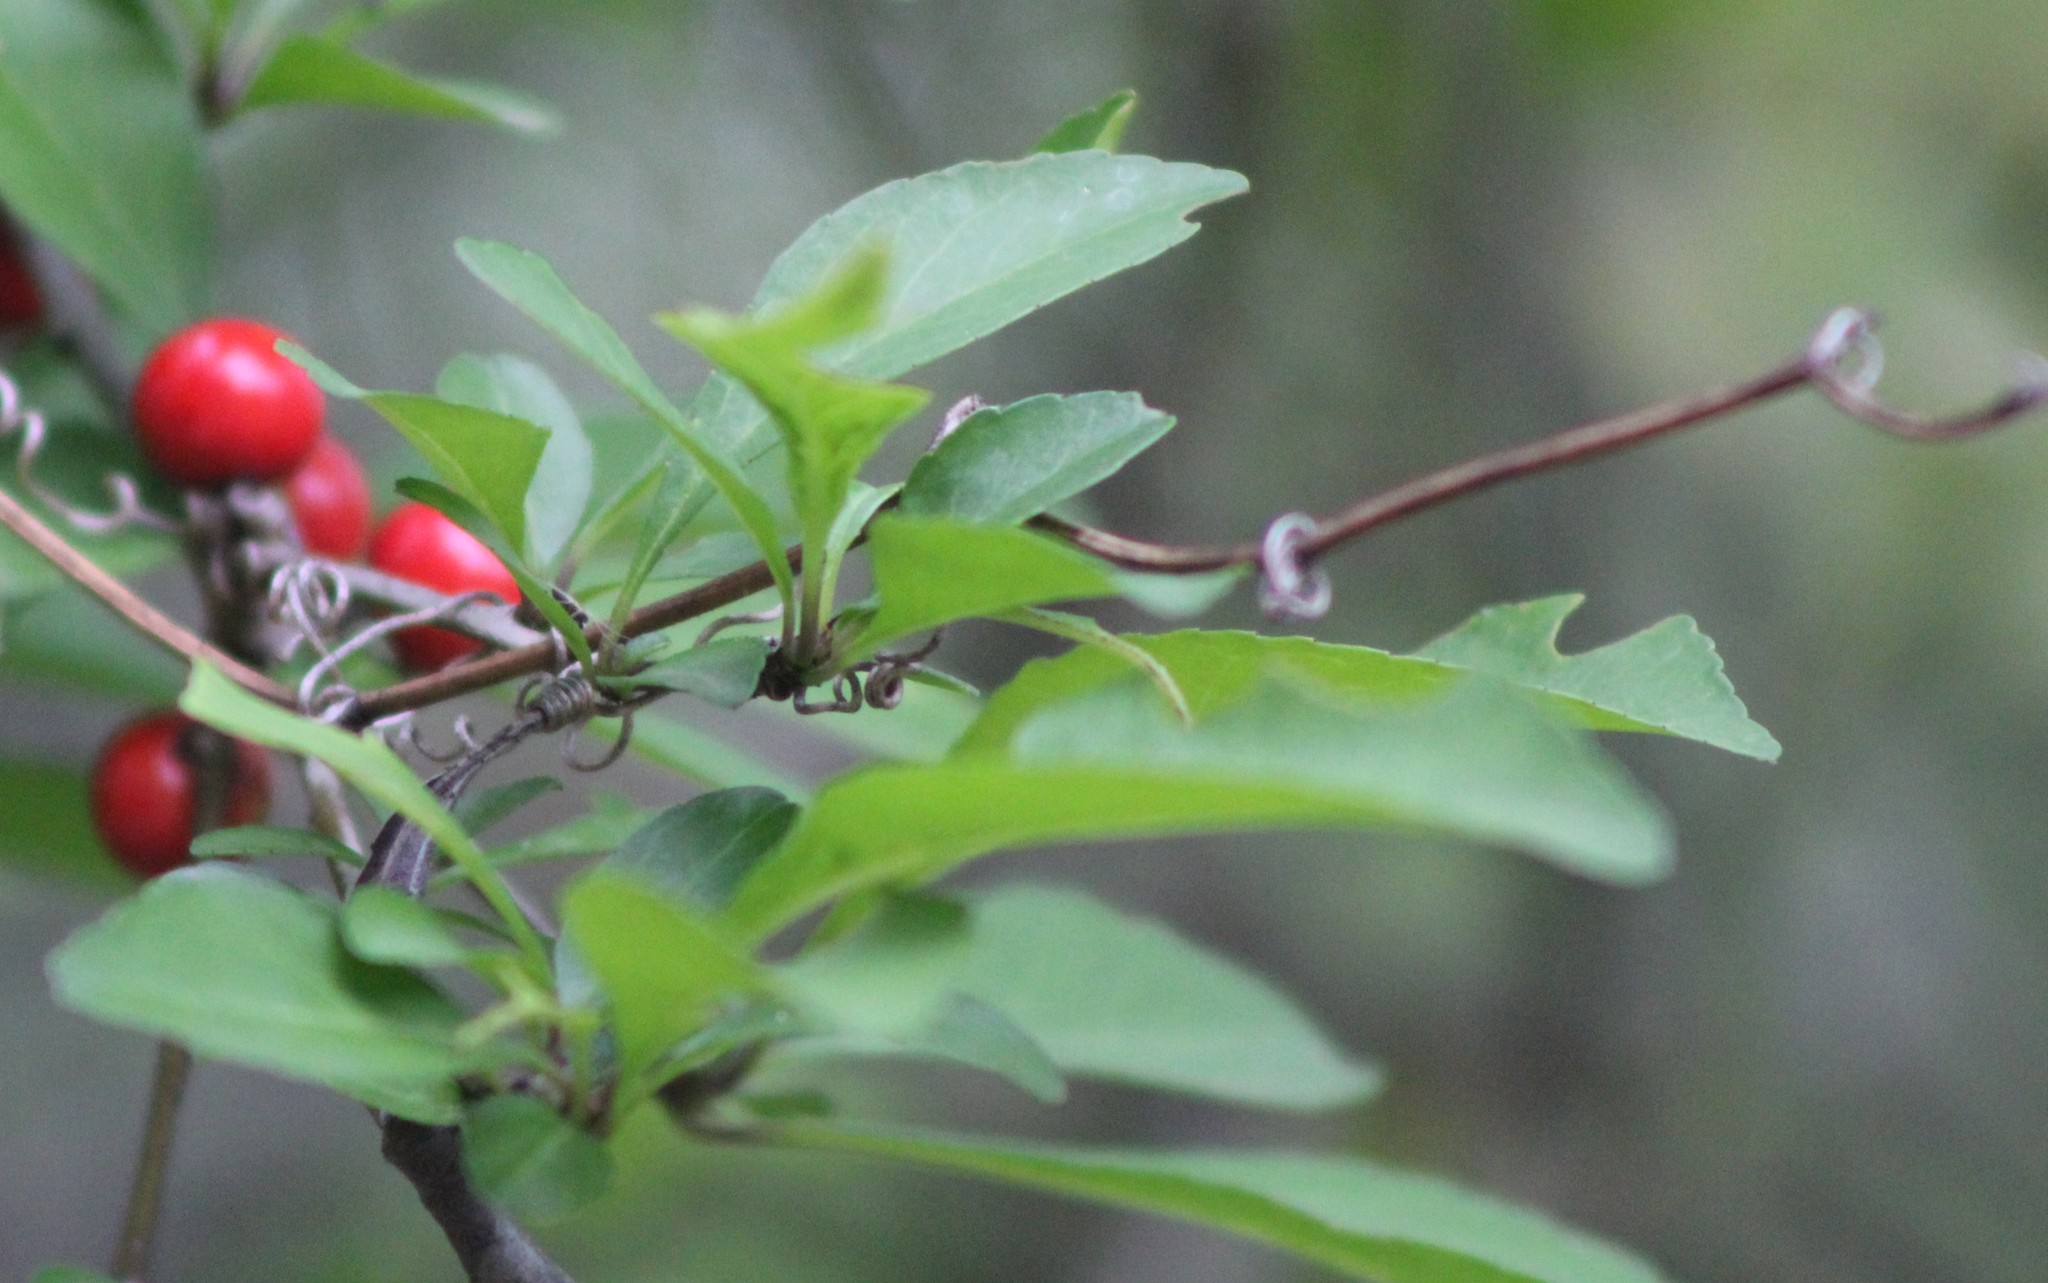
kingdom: Plantae
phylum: Tracheophyta
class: Magnoliopsida
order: Aquifoliales
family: Aquifoliaceae
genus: Ilex
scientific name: Ilex decidua
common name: Possum-haw
